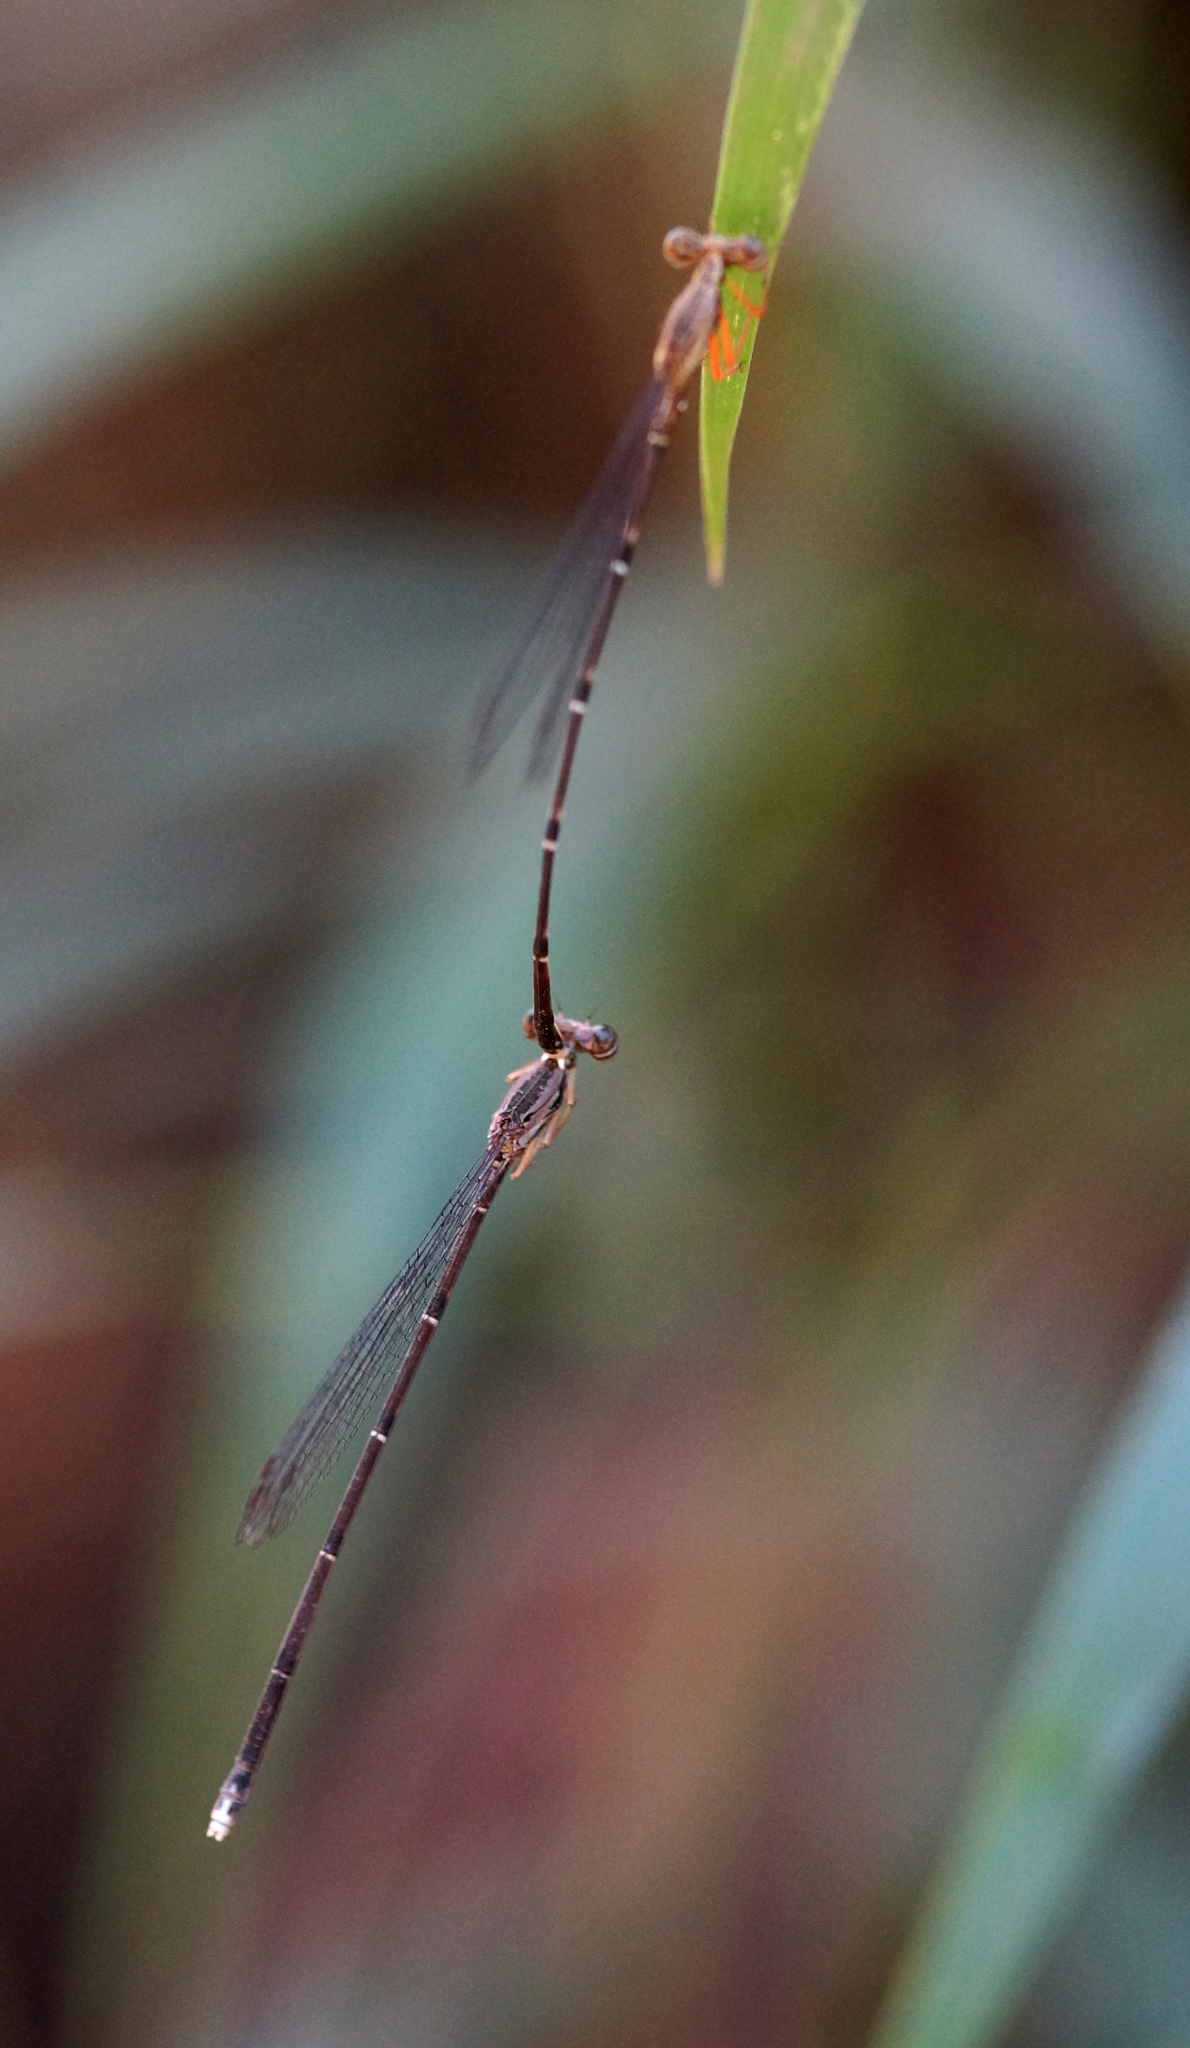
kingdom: Animalia
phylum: Arthropoda
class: Insecta
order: Odonata
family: Platycnemididae
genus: Copera
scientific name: Copera vittata
